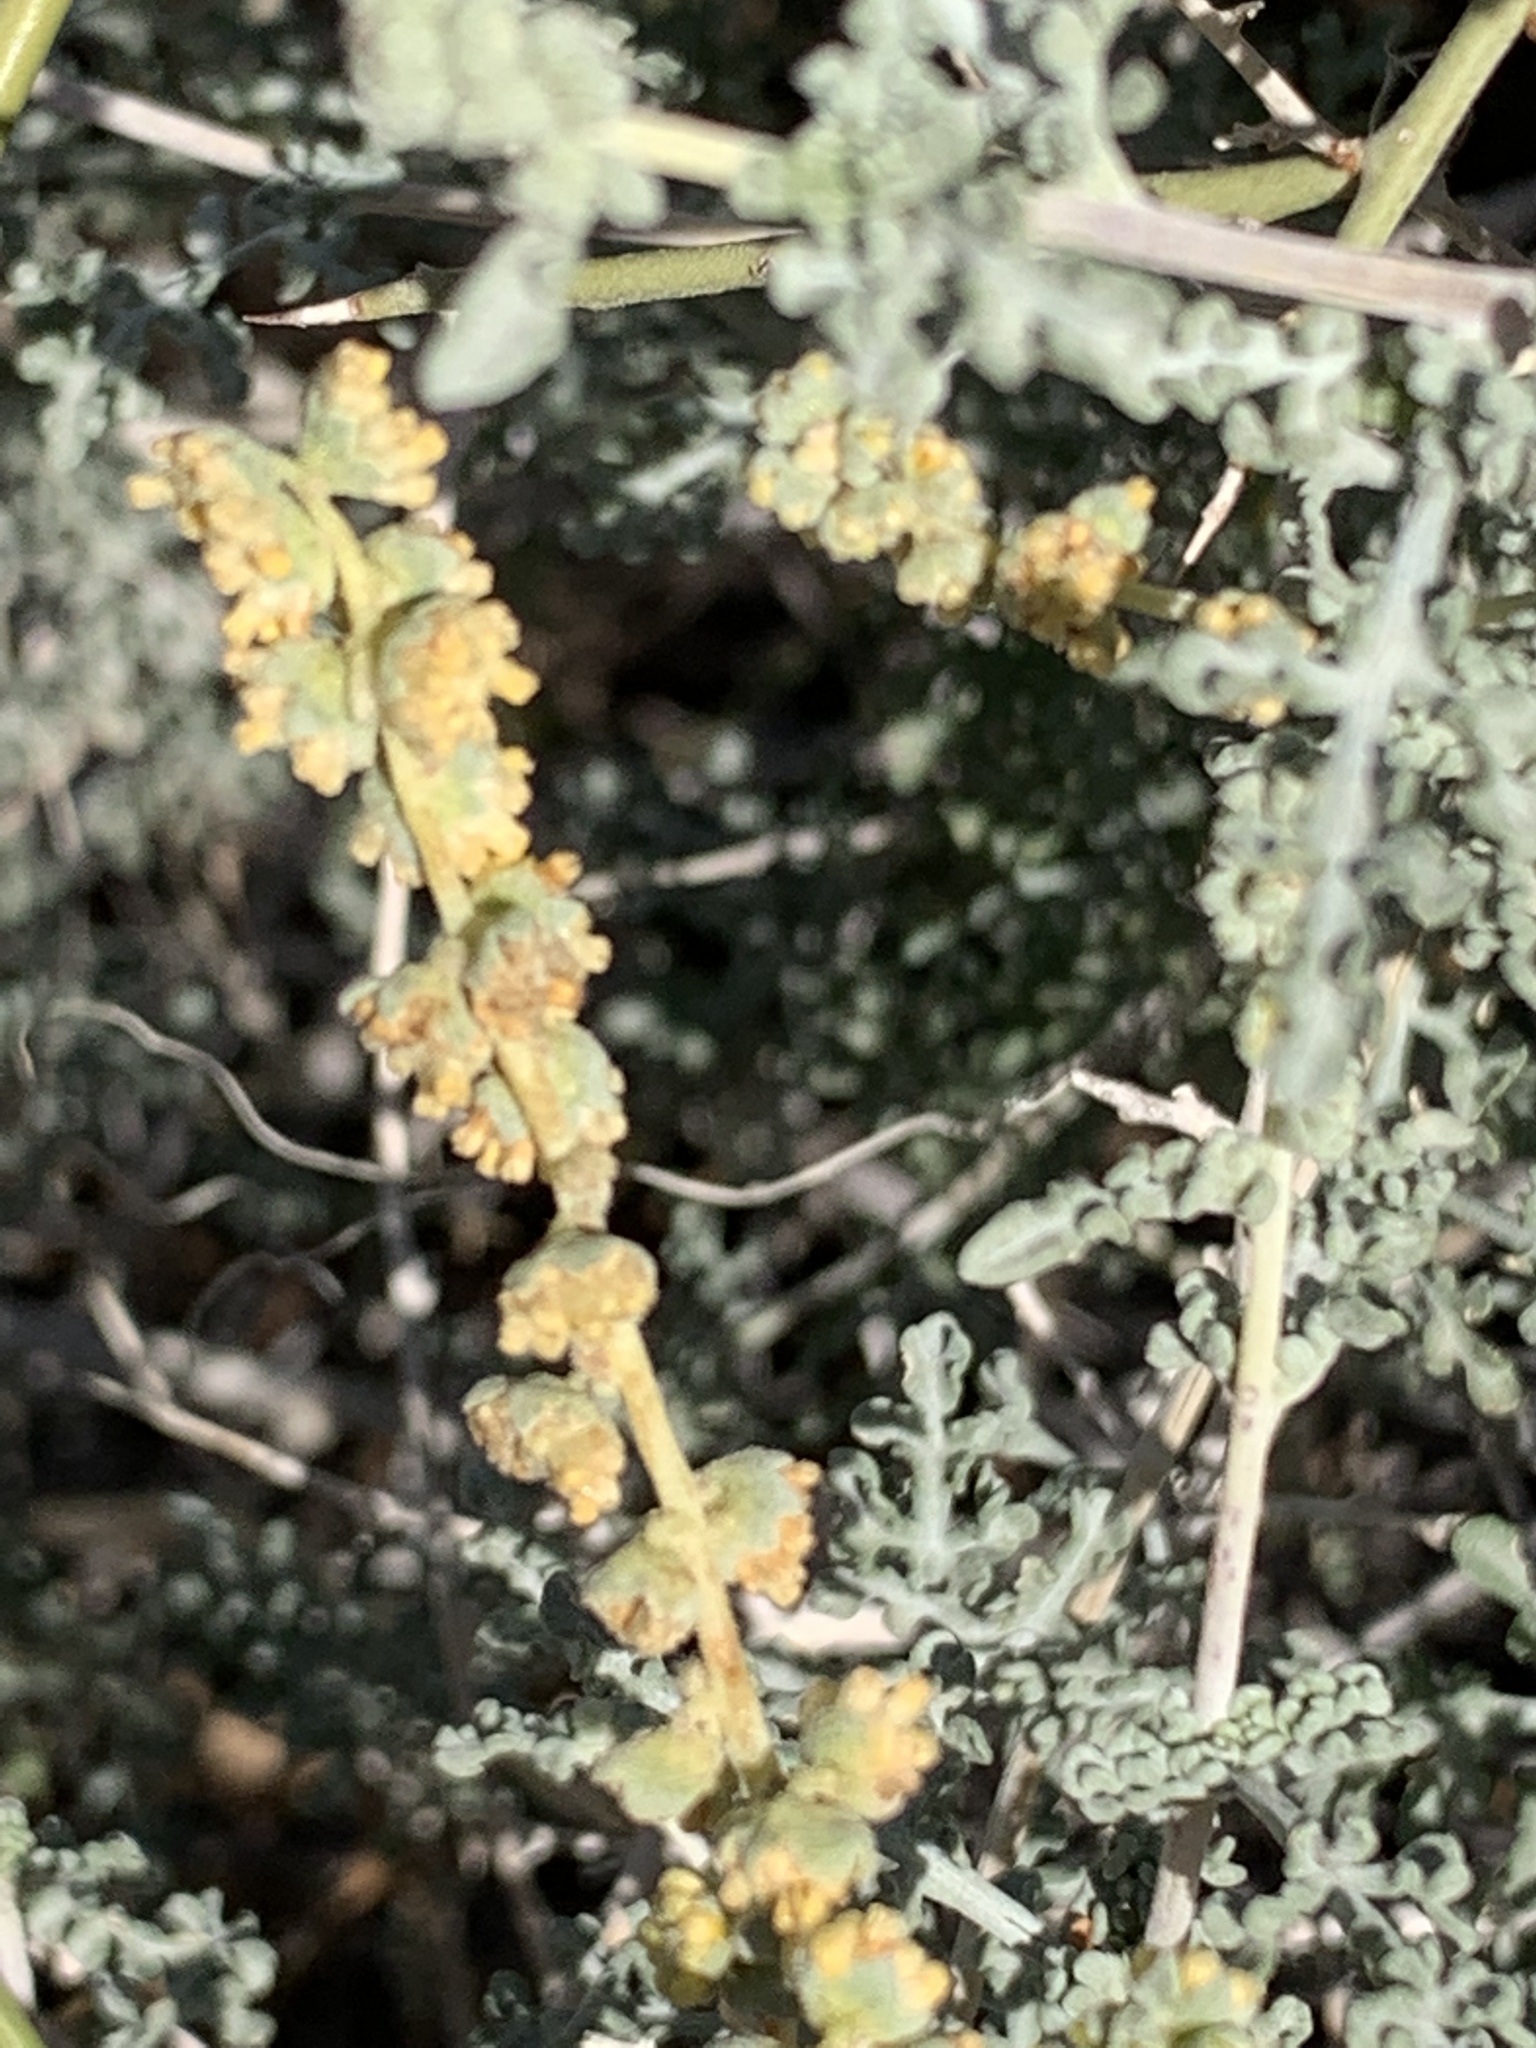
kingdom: Plantae
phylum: Tracheophyta
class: Magnoliopsida
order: Asterales
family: Asteraceae
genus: Ambrosia
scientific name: Ambrosia dumosa
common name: Bur-sage
